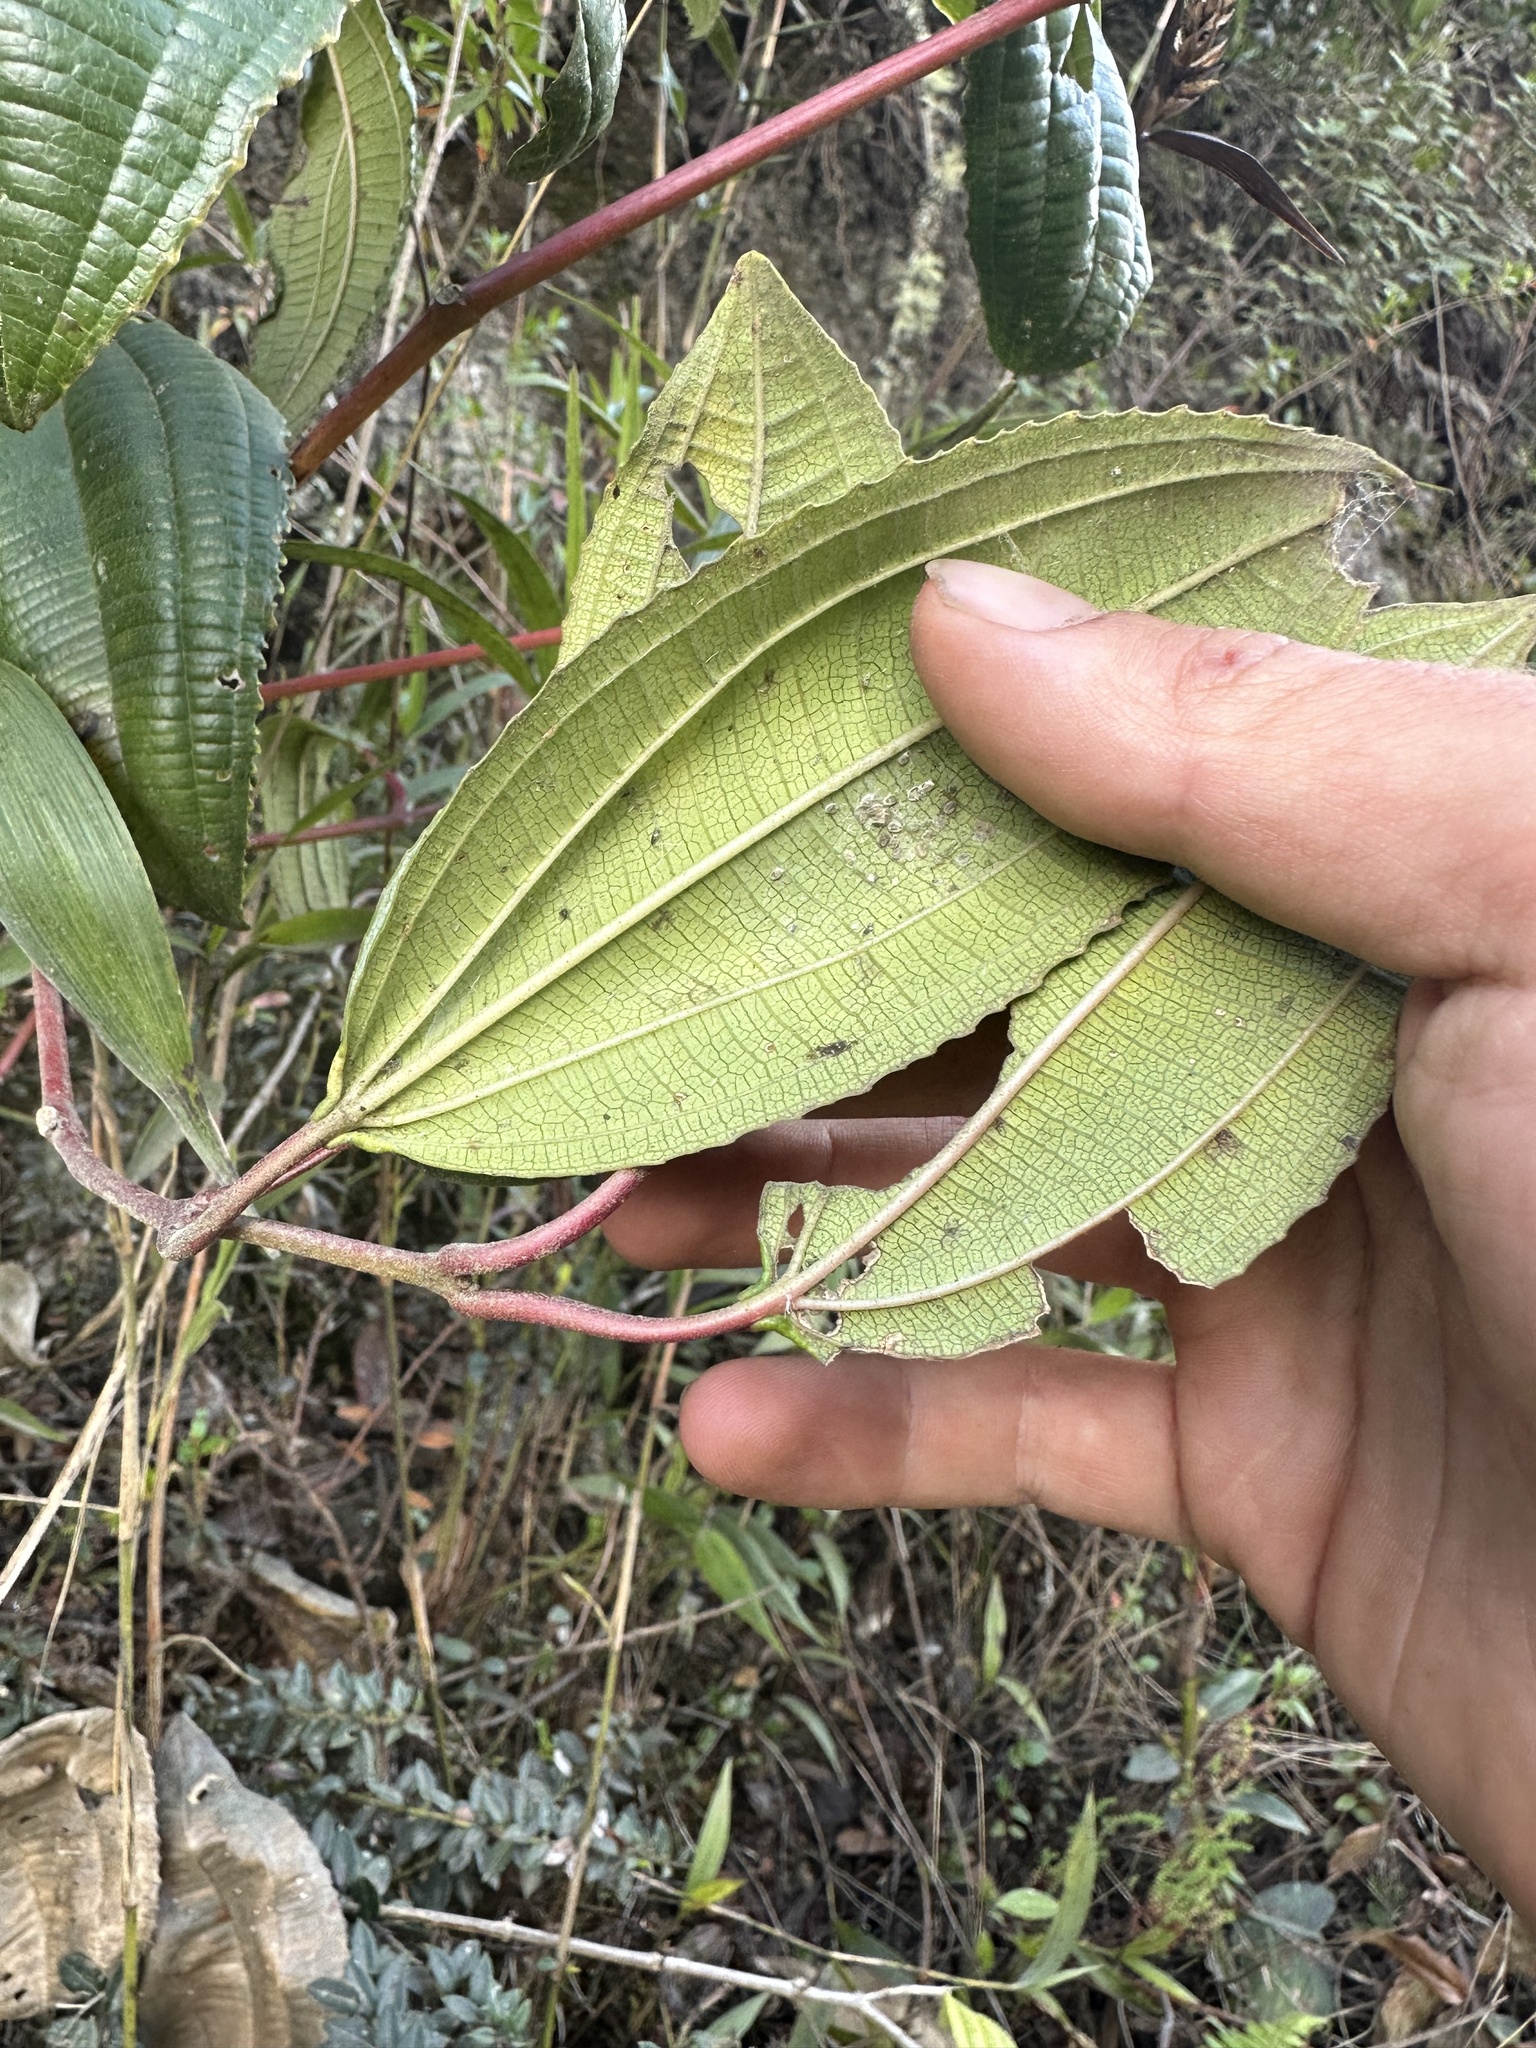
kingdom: Plantae
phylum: Tracheophyta
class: Magnoliopsida
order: Myrtales
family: Melastomataceae
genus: Axinaea
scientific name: Axinaea macrophylla
